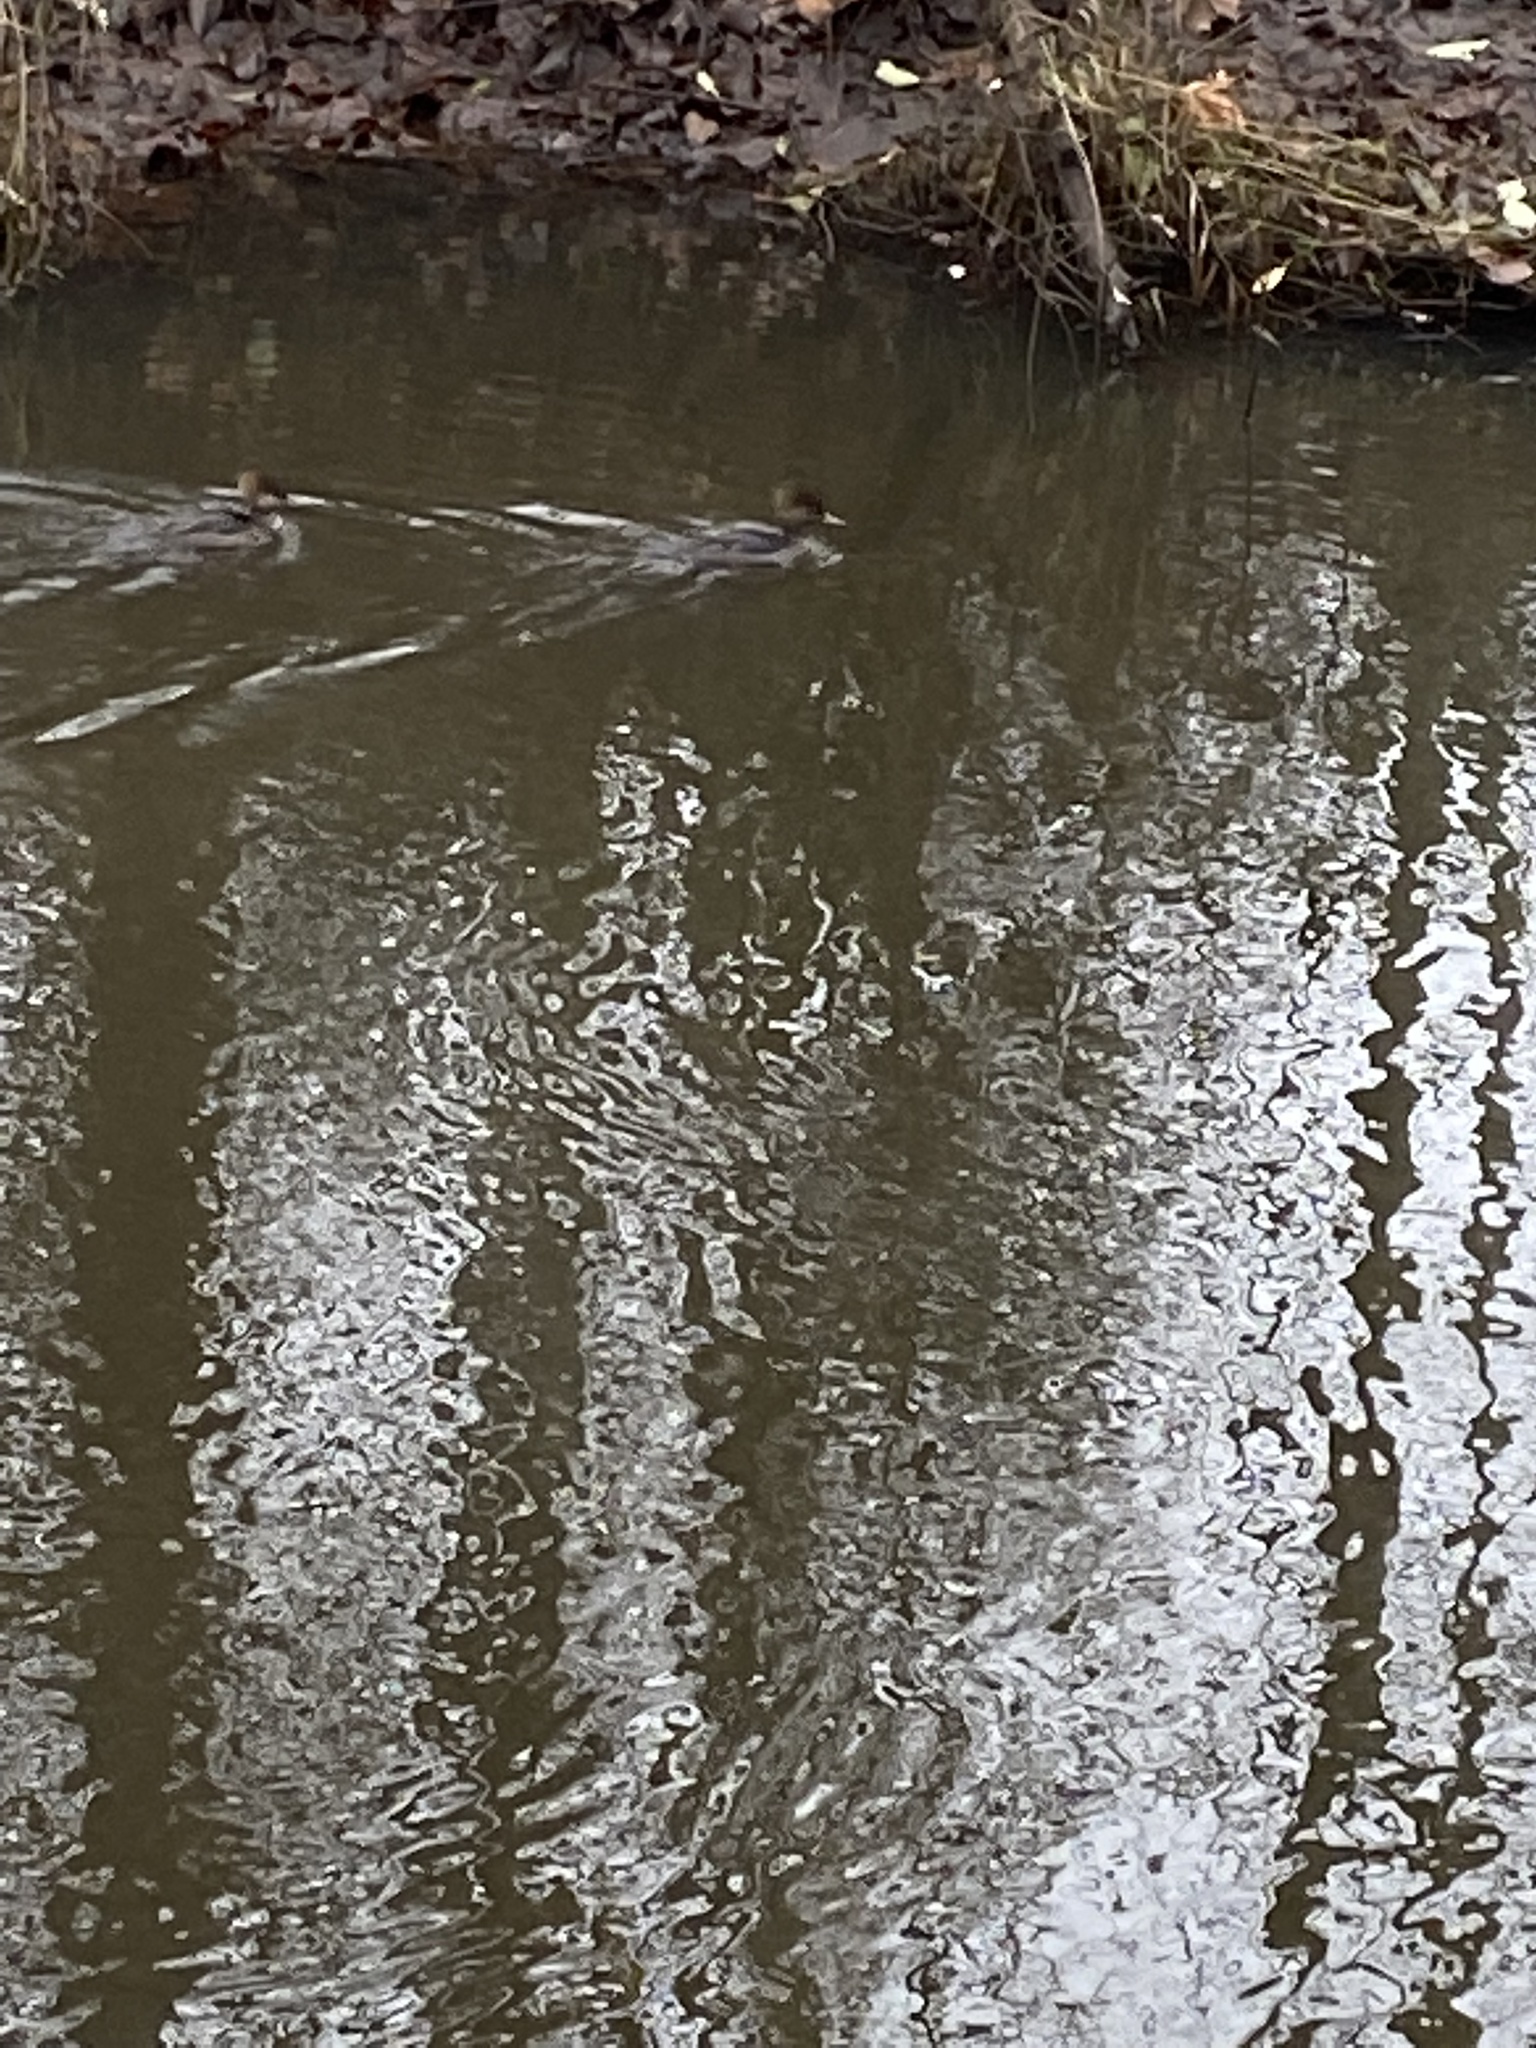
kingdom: Animalia
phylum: Chordata
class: Aves
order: Anseriformes
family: Anatidae
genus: Lophodytes
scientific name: Lophodytes cucullatus
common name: Hooded merganser
